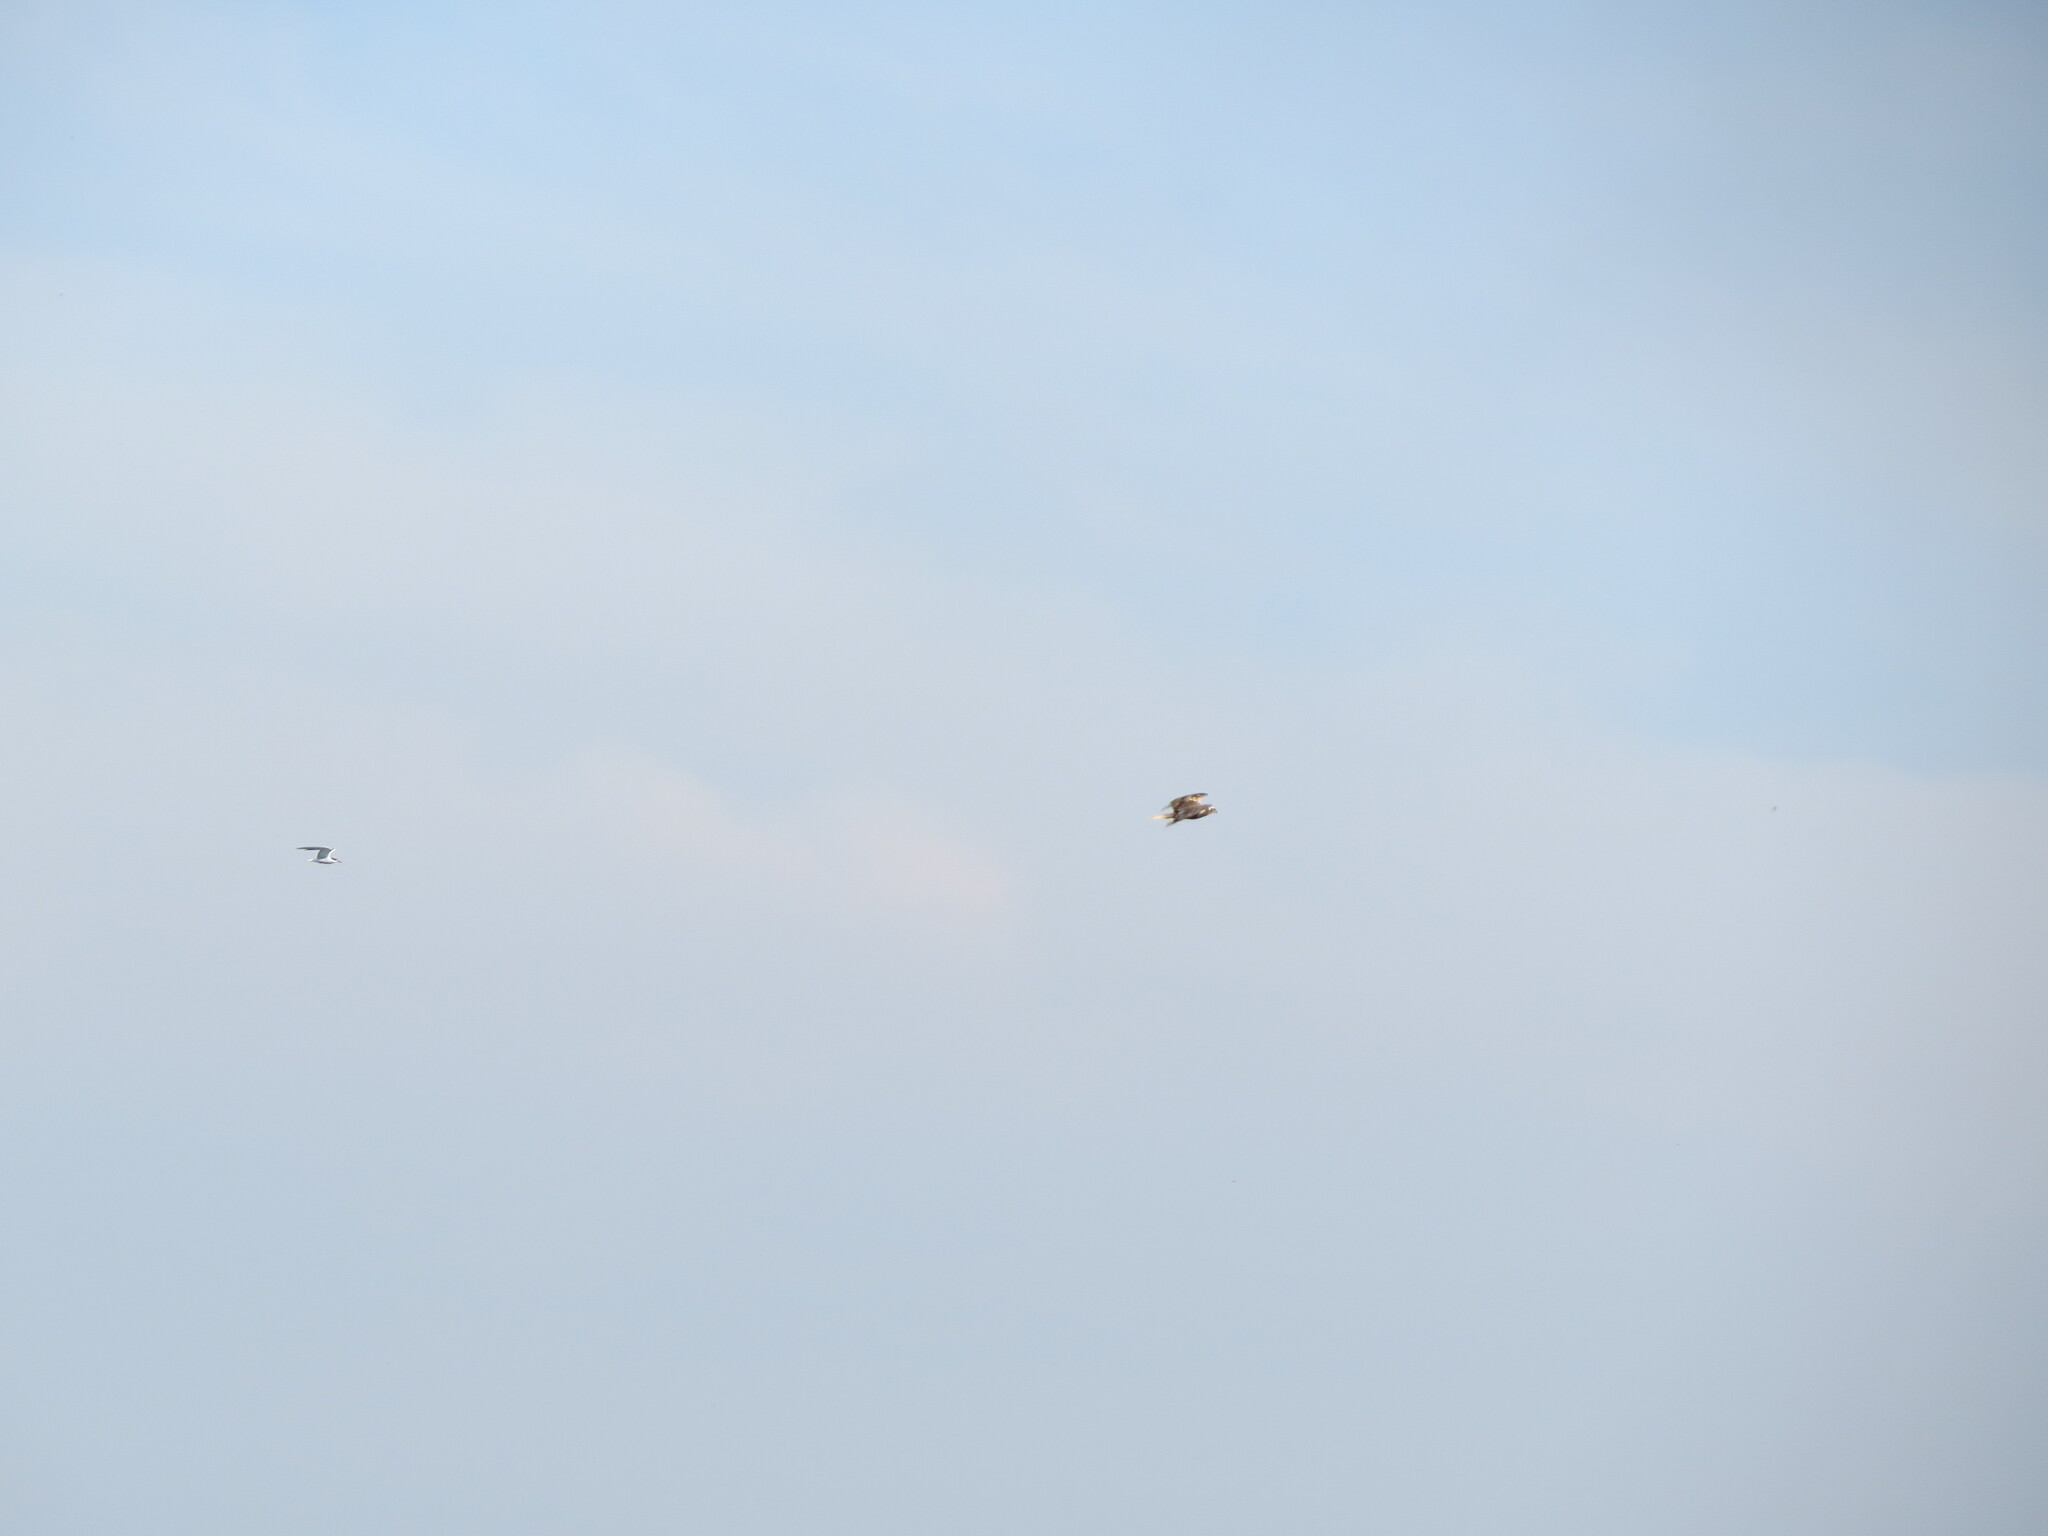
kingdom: Animalia
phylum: Chordata
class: Aves
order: Accipitriformes
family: Accipitridae
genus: Circus
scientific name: Circus aeruginosus
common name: Western marsh harrier
